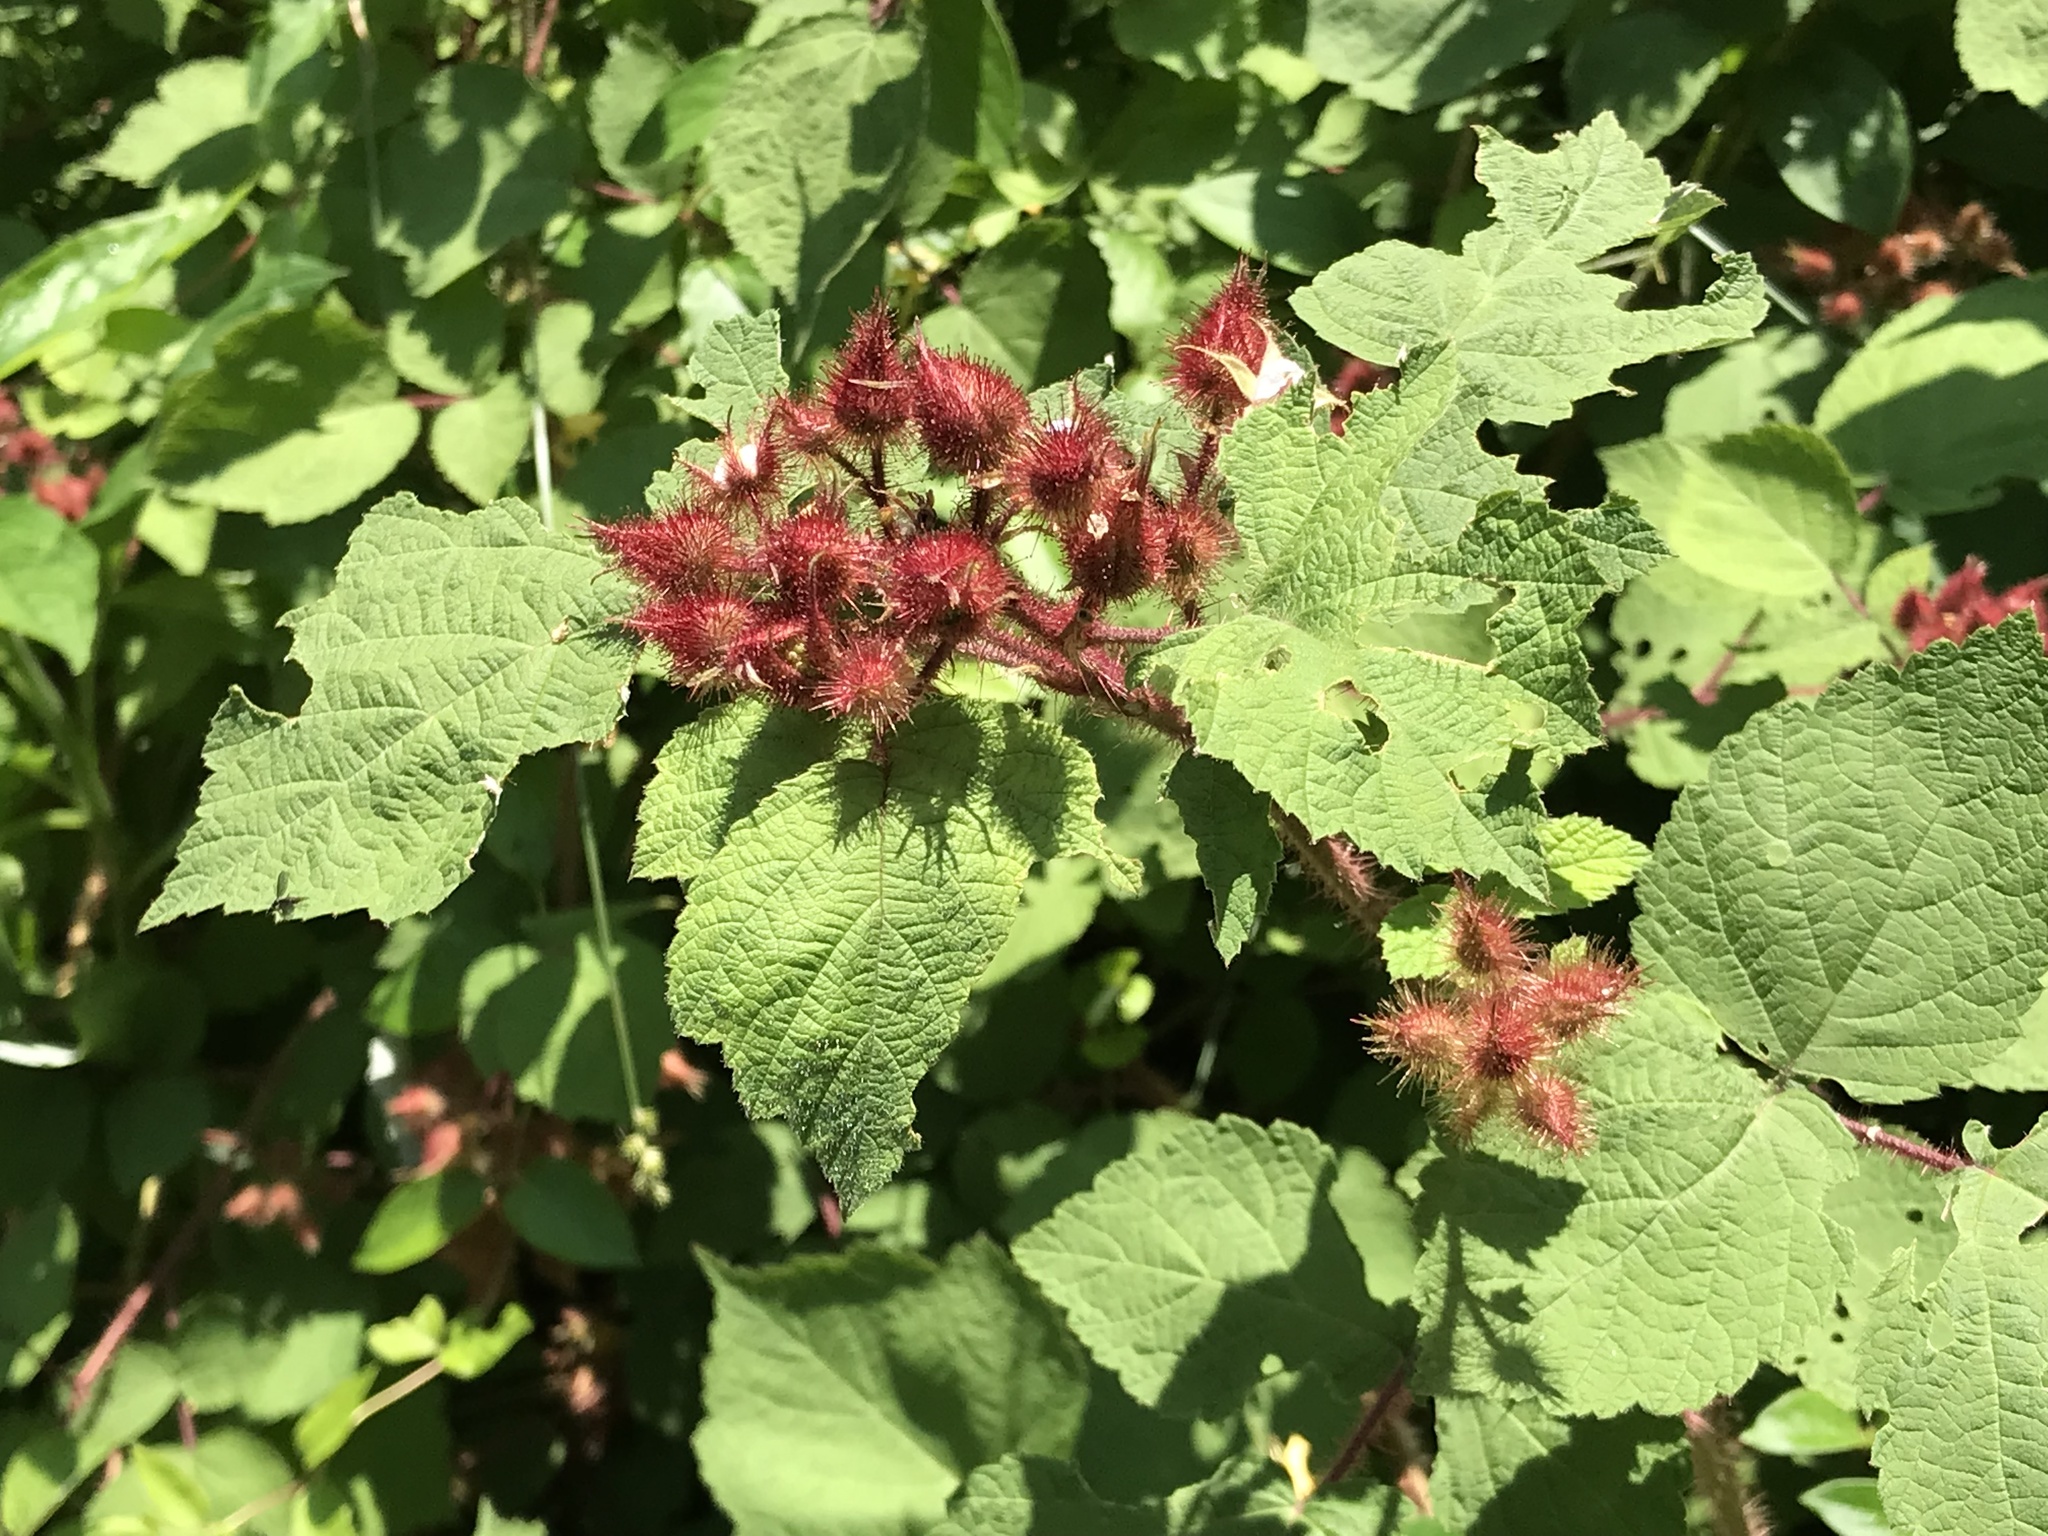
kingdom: Plantae
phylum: Tracheophyta
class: Magnoliopsida
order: Rosales
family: Rosaceae
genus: Rubus
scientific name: Rubus phoenicolasius
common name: Japanese wineberry
